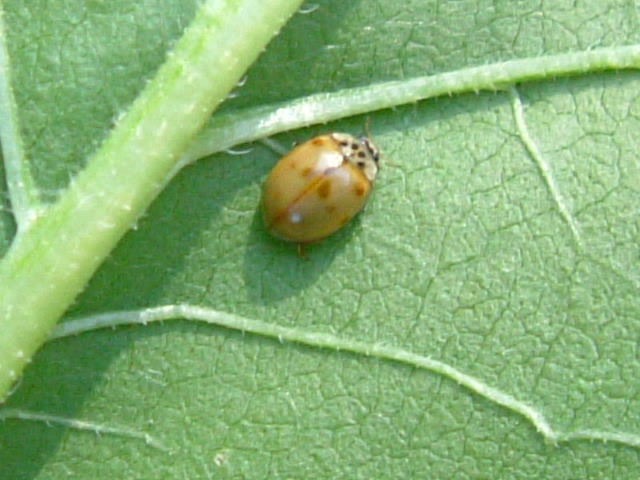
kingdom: Animalia
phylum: Arthropoda
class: Insecta
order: Coleoptera
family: Coccinellidae
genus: Adalia
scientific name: Adalia decempunctata
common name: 10-spot ladybird
